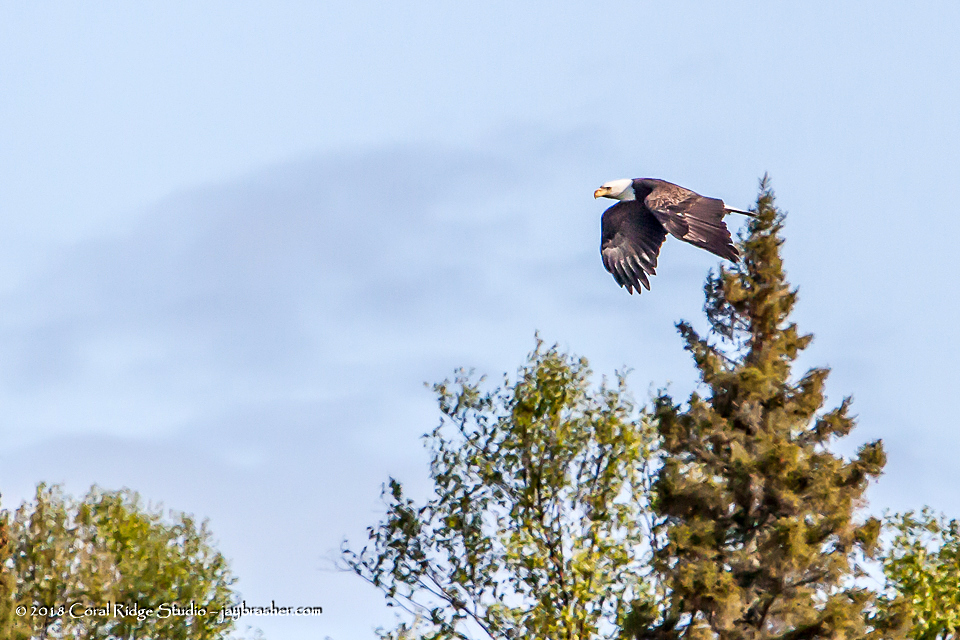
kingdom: Animalia
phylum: Chordata
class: Aves
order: Accipitriformes
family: Accipitridae
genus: Haliaeetus
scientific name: Haliaeetus leucocephalus
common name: Bald eagle
